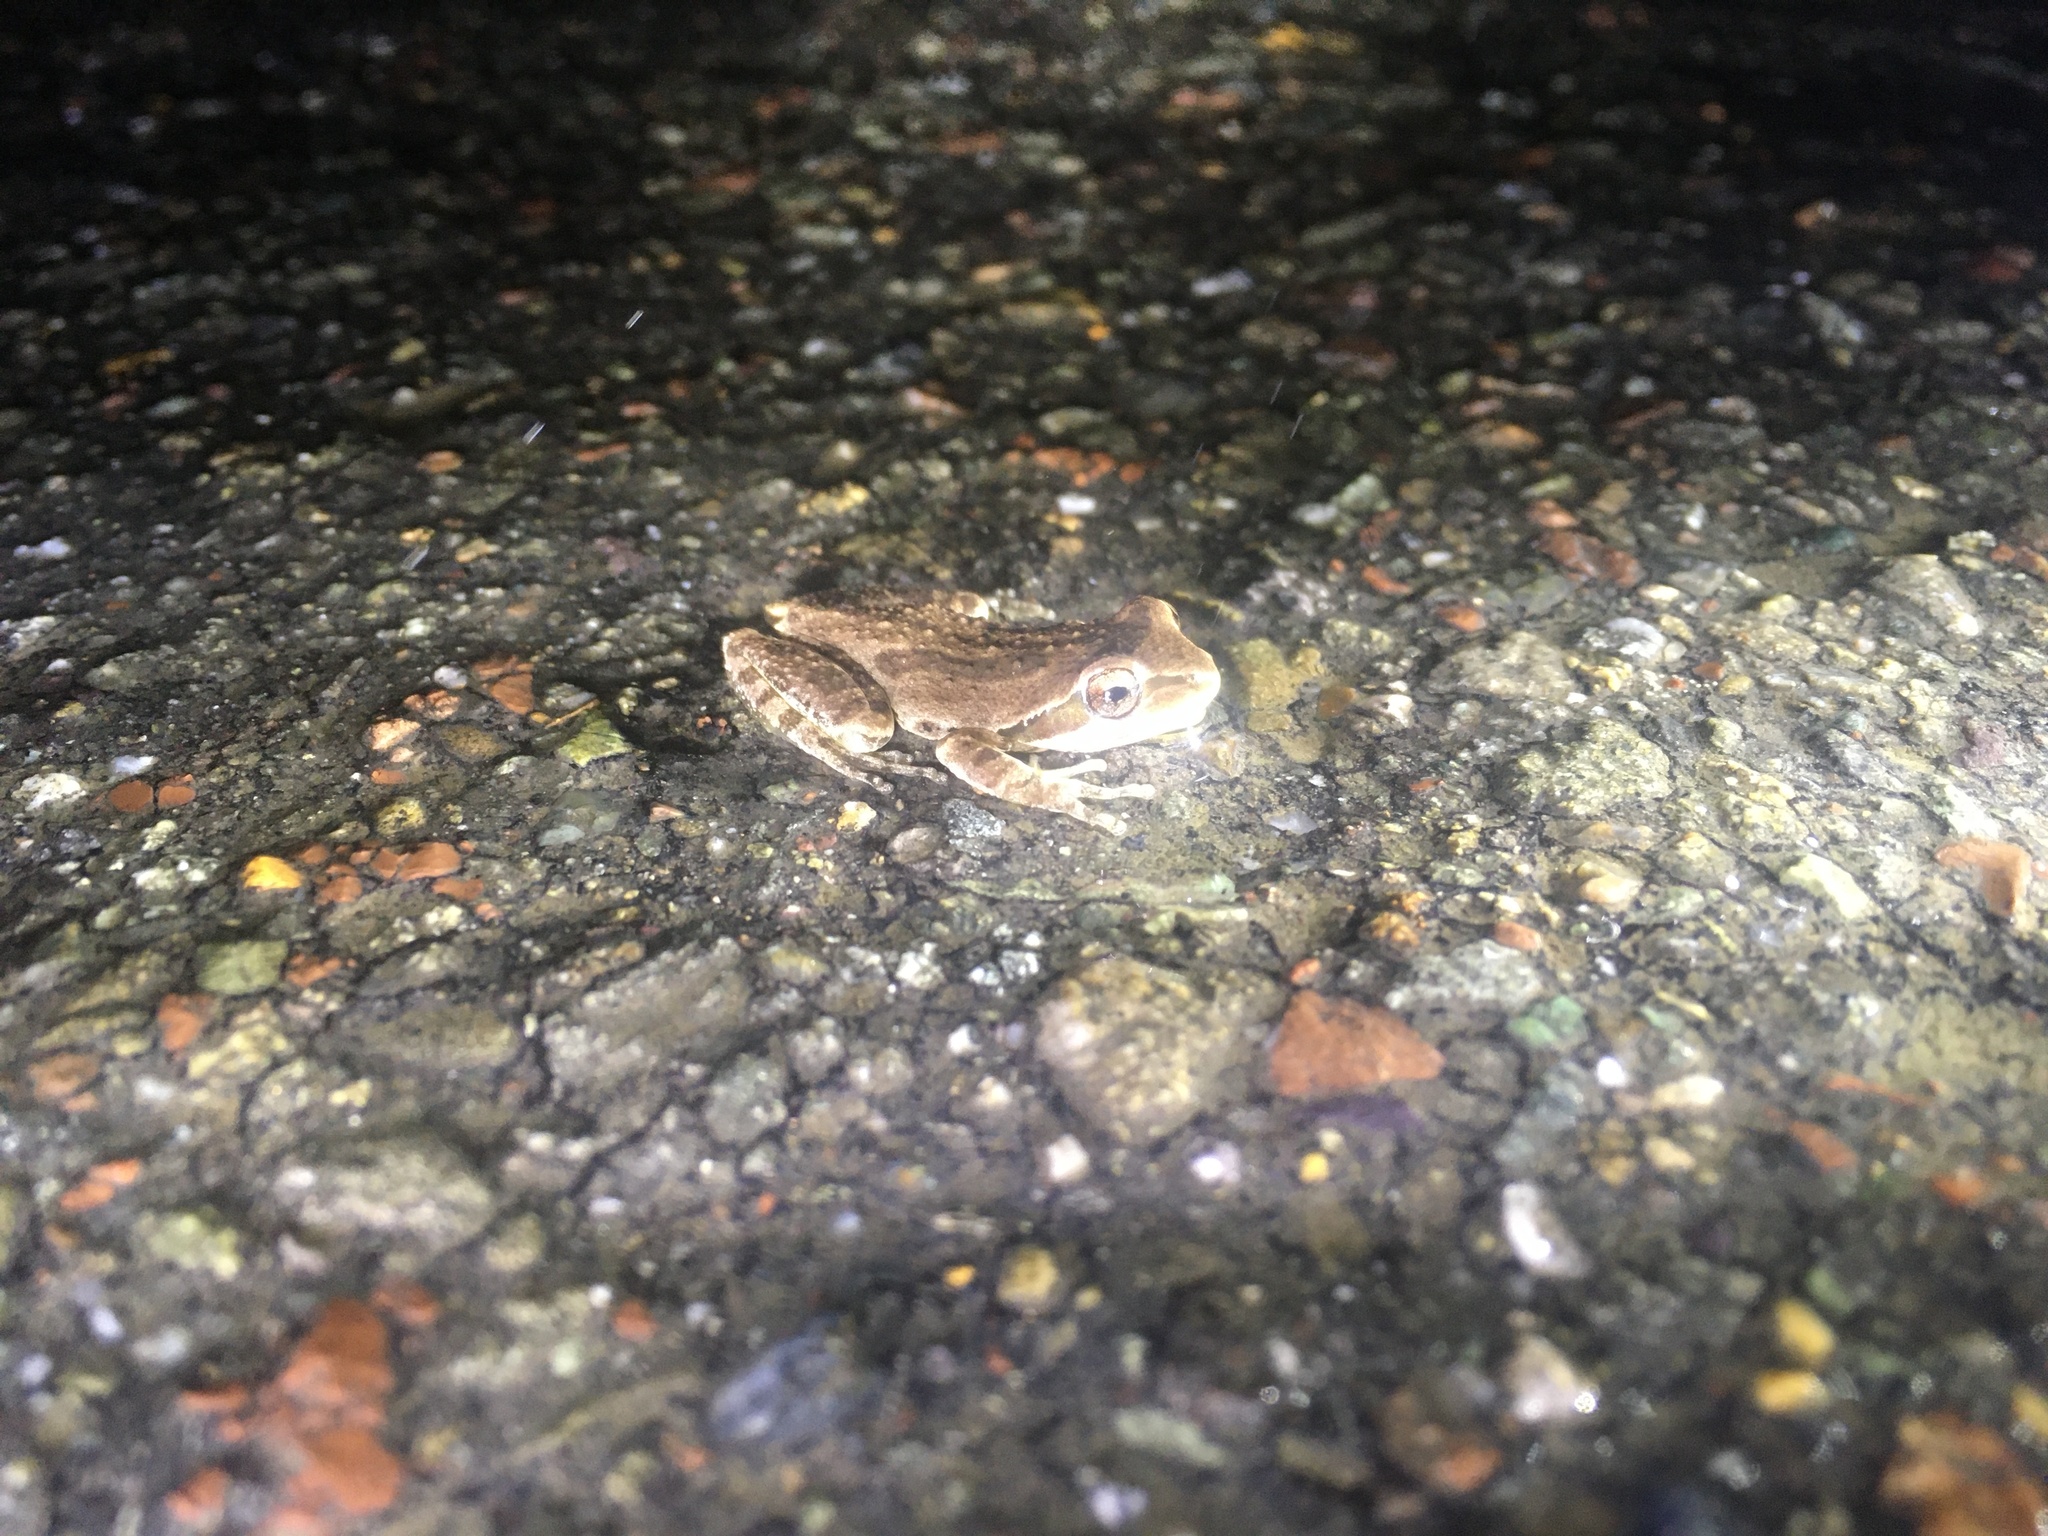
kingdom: Animalia
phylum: Chordata
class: Amphibia
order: Anura
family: Hylidae
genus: Pseudacris
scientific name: Pseudacris regilla
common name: Pacific chorus frog
